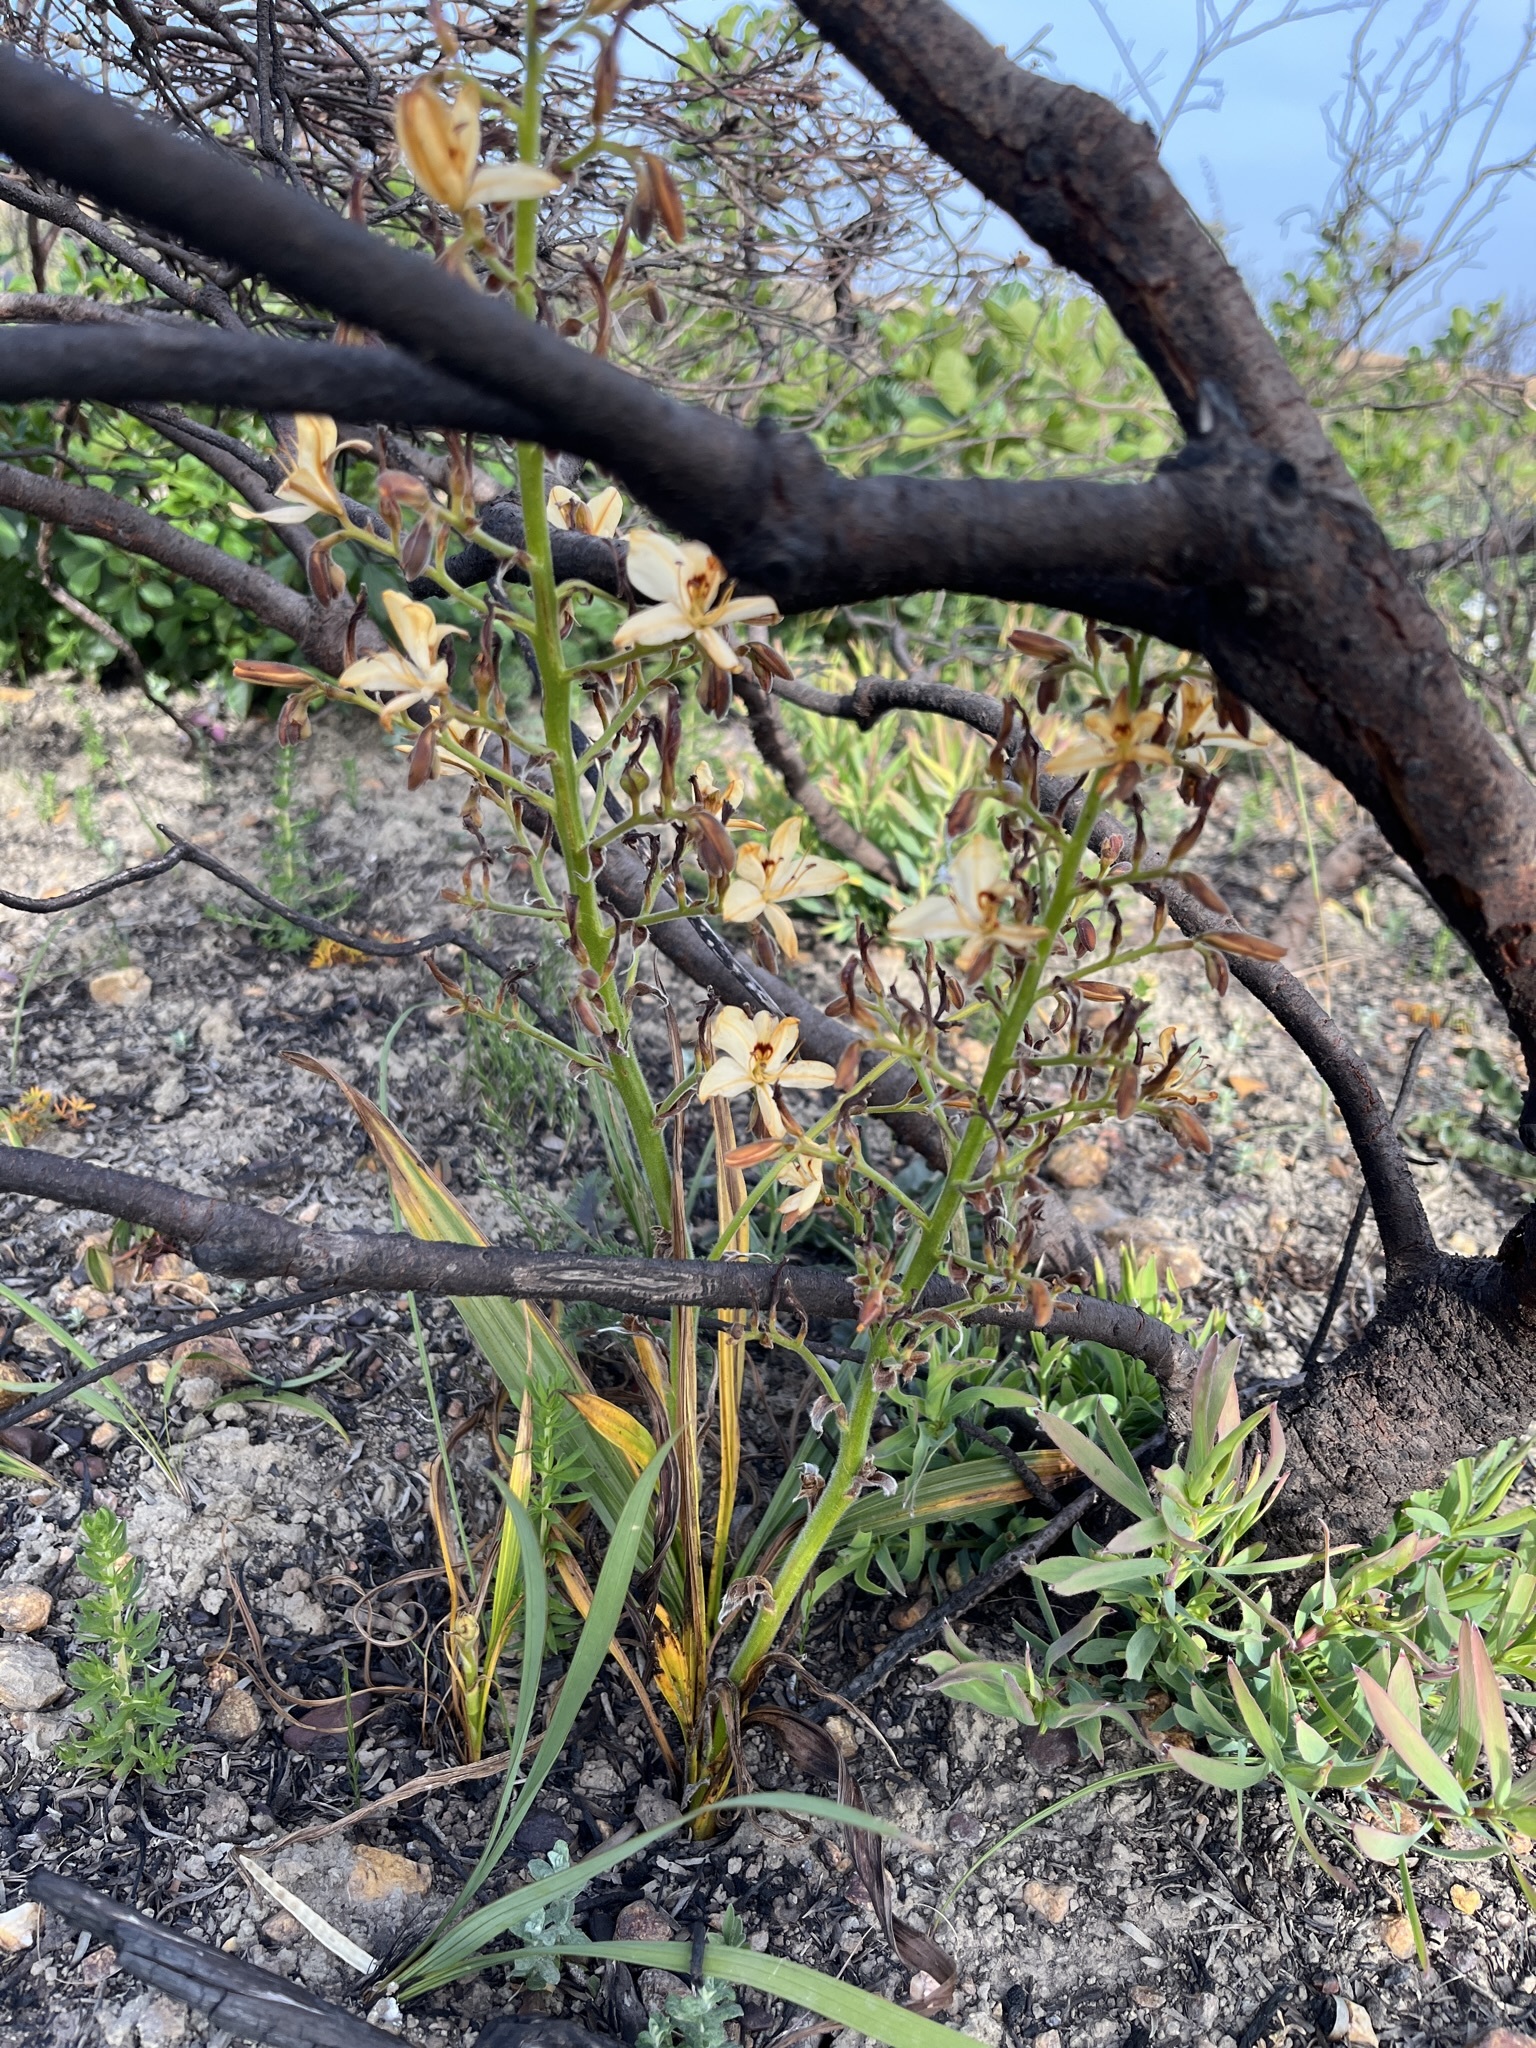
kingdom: Plantae
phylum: Tracheophyta
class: Liliopsida
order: Commelinales
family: Haemodoraceae
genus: Wachendorfia
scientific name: Wachendorfia paniculata
